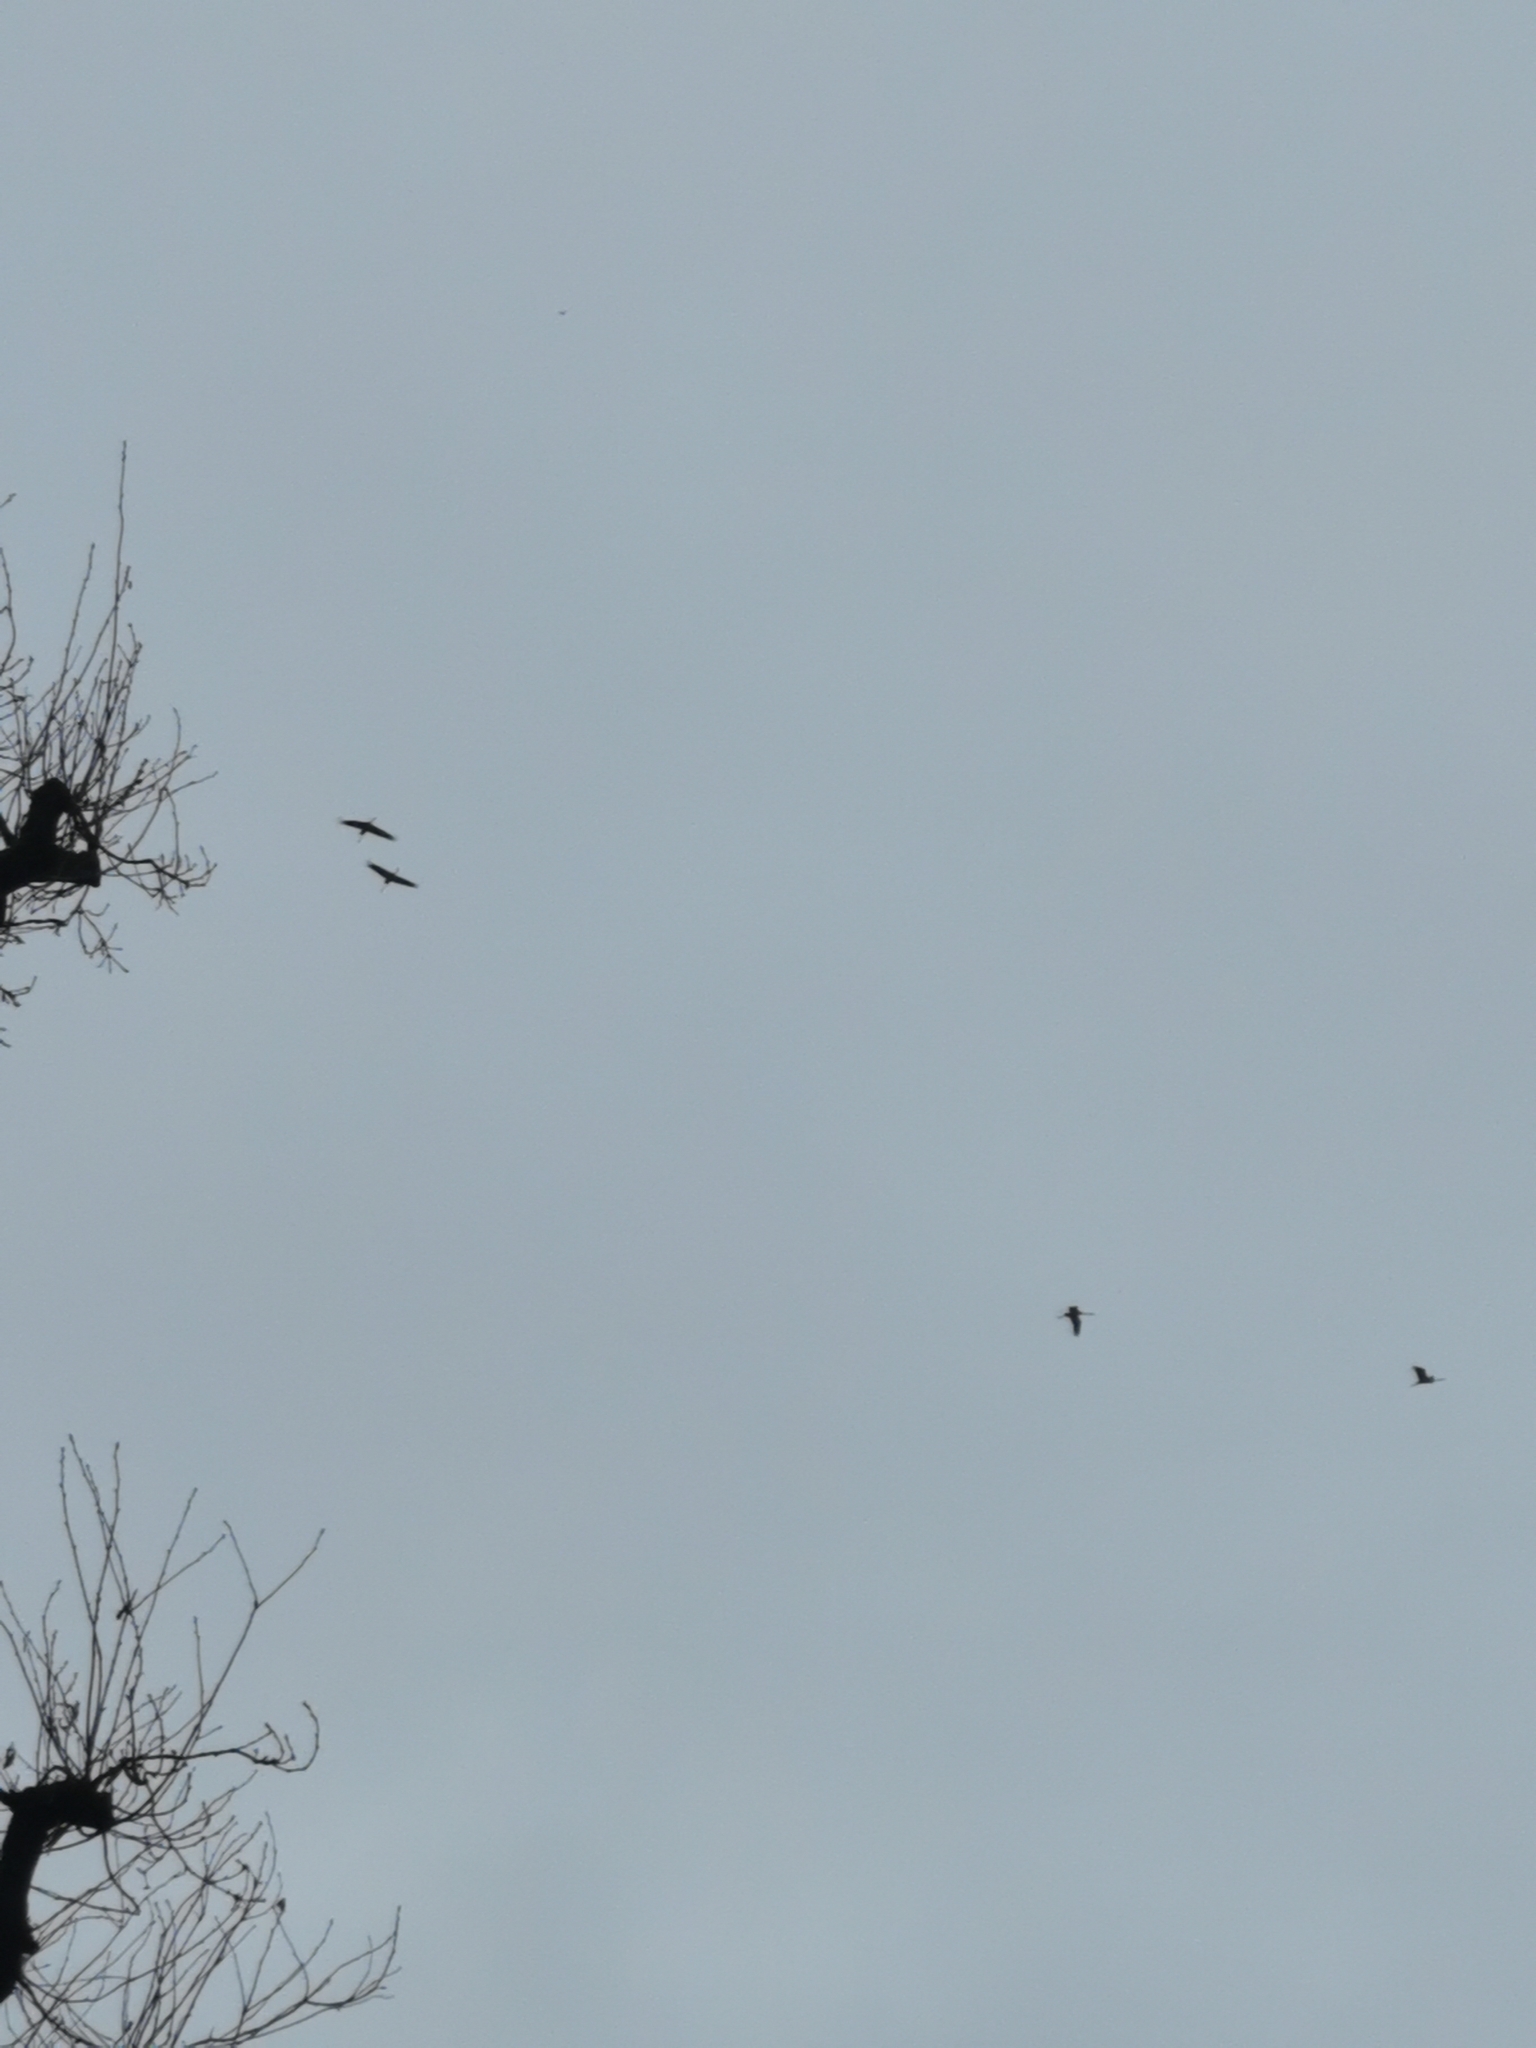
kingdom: Animalia
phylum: Chordata
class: Aves
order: Gruiformes
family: Gruidae
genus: Grus
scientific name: Grus grus
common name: Common crane
